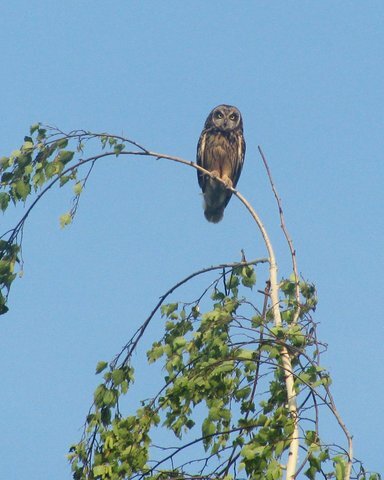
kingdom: Animalia
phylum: Chordata
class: Aves
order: Strigiformes
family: Strigidae
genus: Asio
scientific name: Asio flammeus
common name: Short-eared owl
